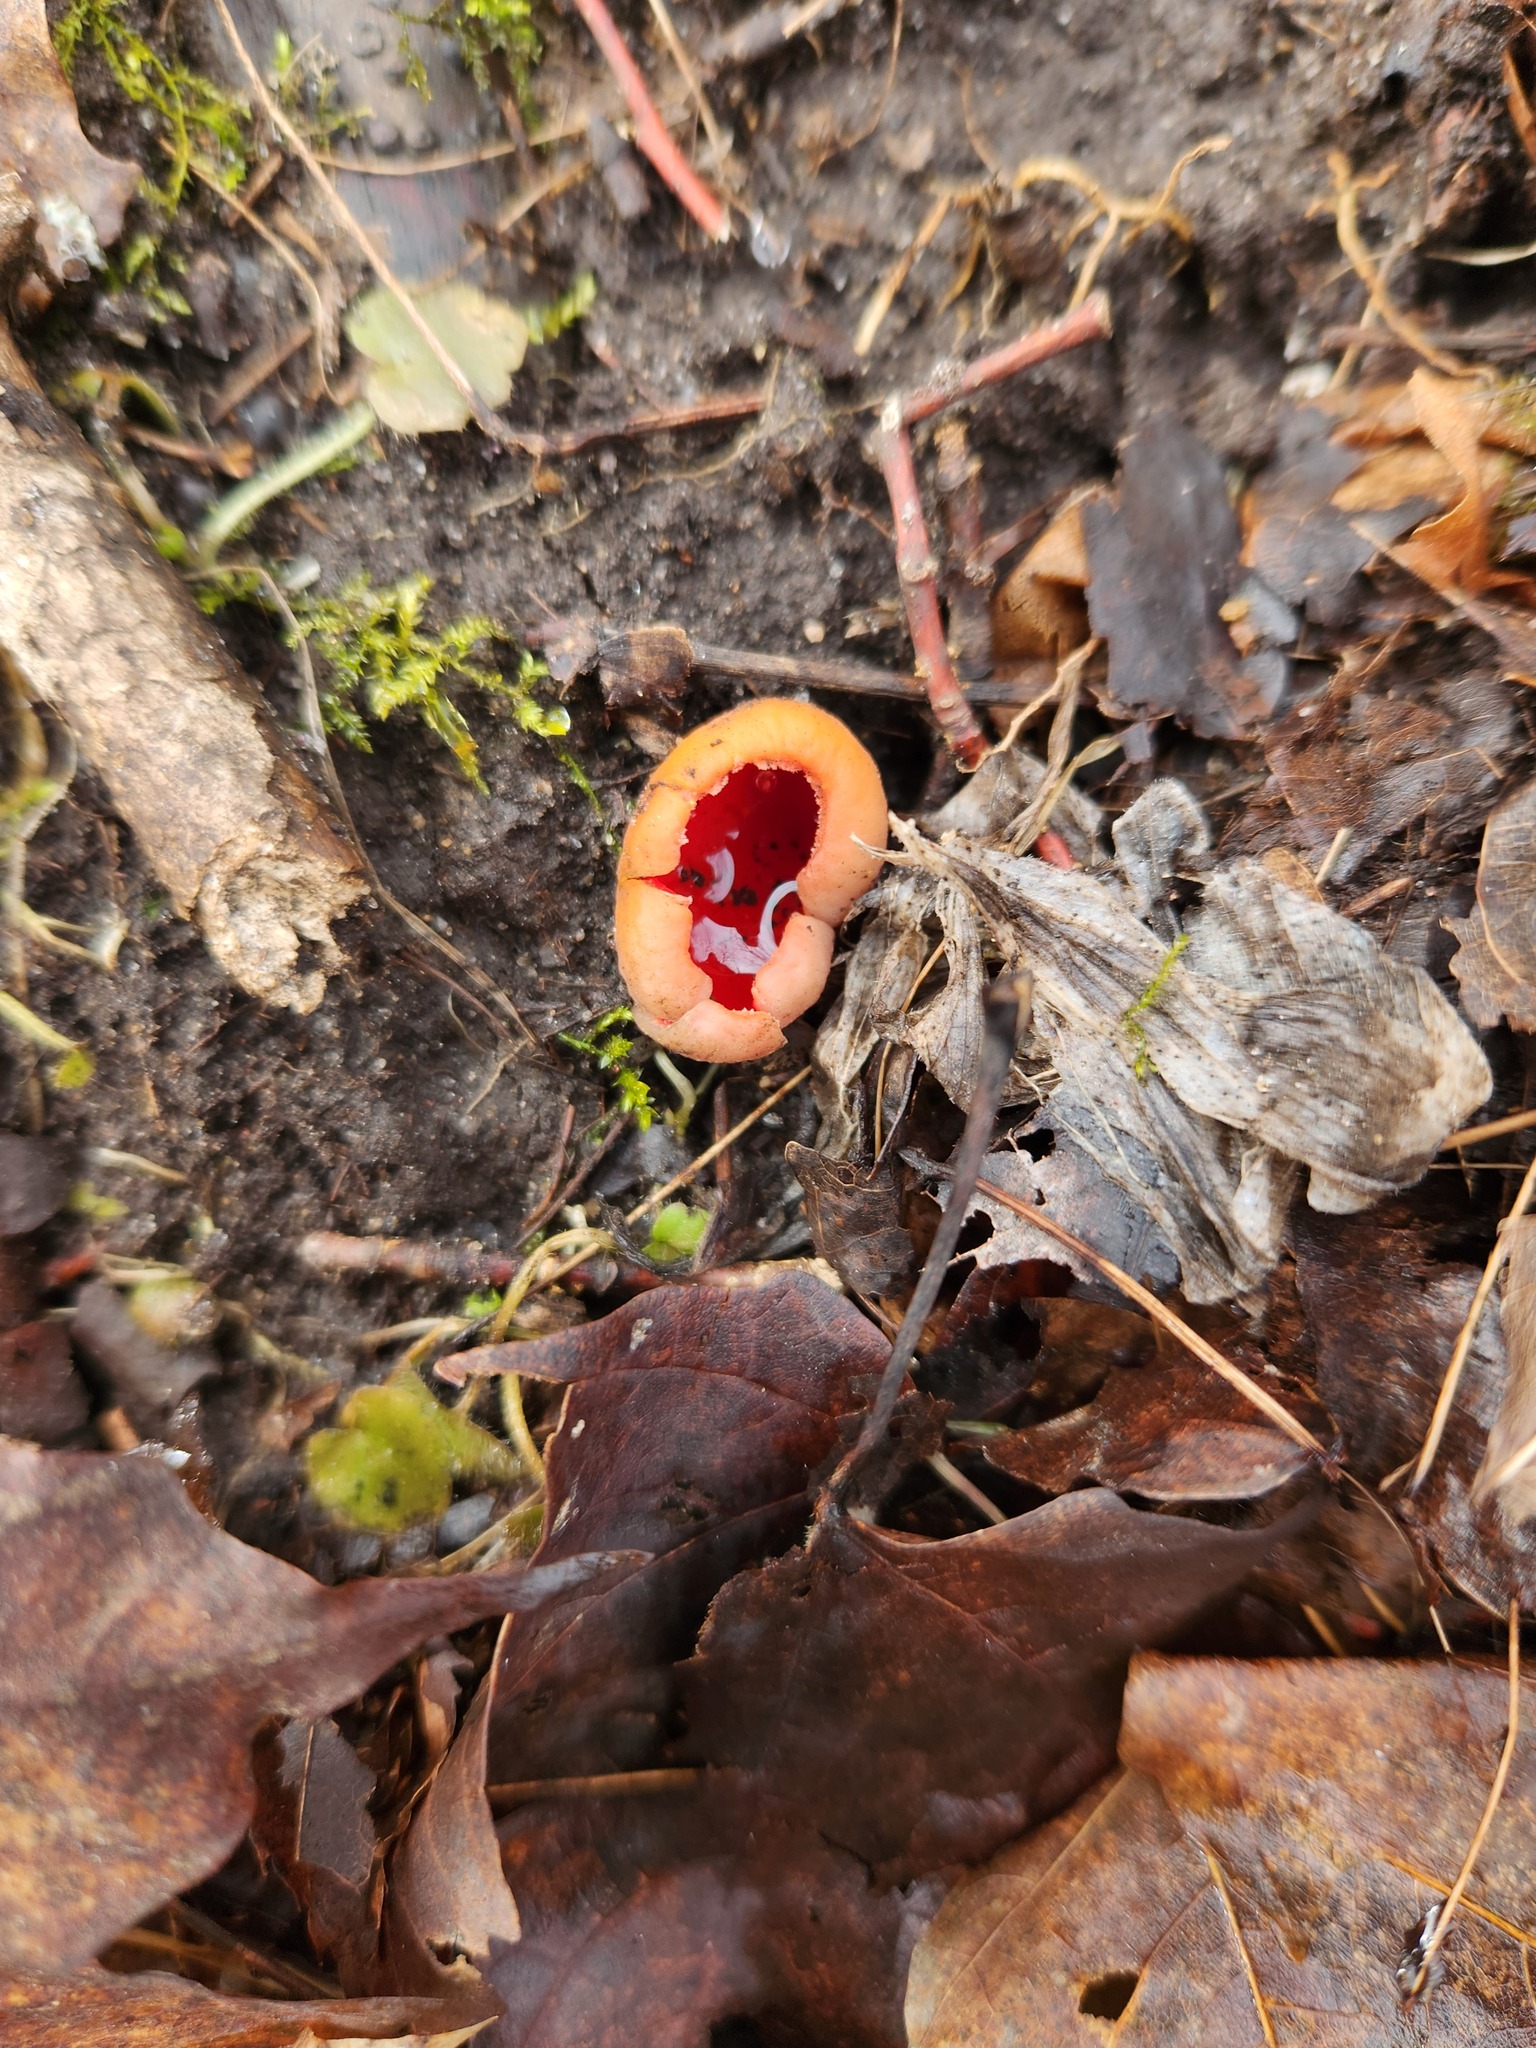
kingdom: Fungi
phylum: Ascomycota
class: Pezizomycetes
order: Pezizales
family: Sarcoscyphaceae
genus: Sarcoscypha
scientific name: Sarcoscypha austriaca
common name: Scarlet elfcup
